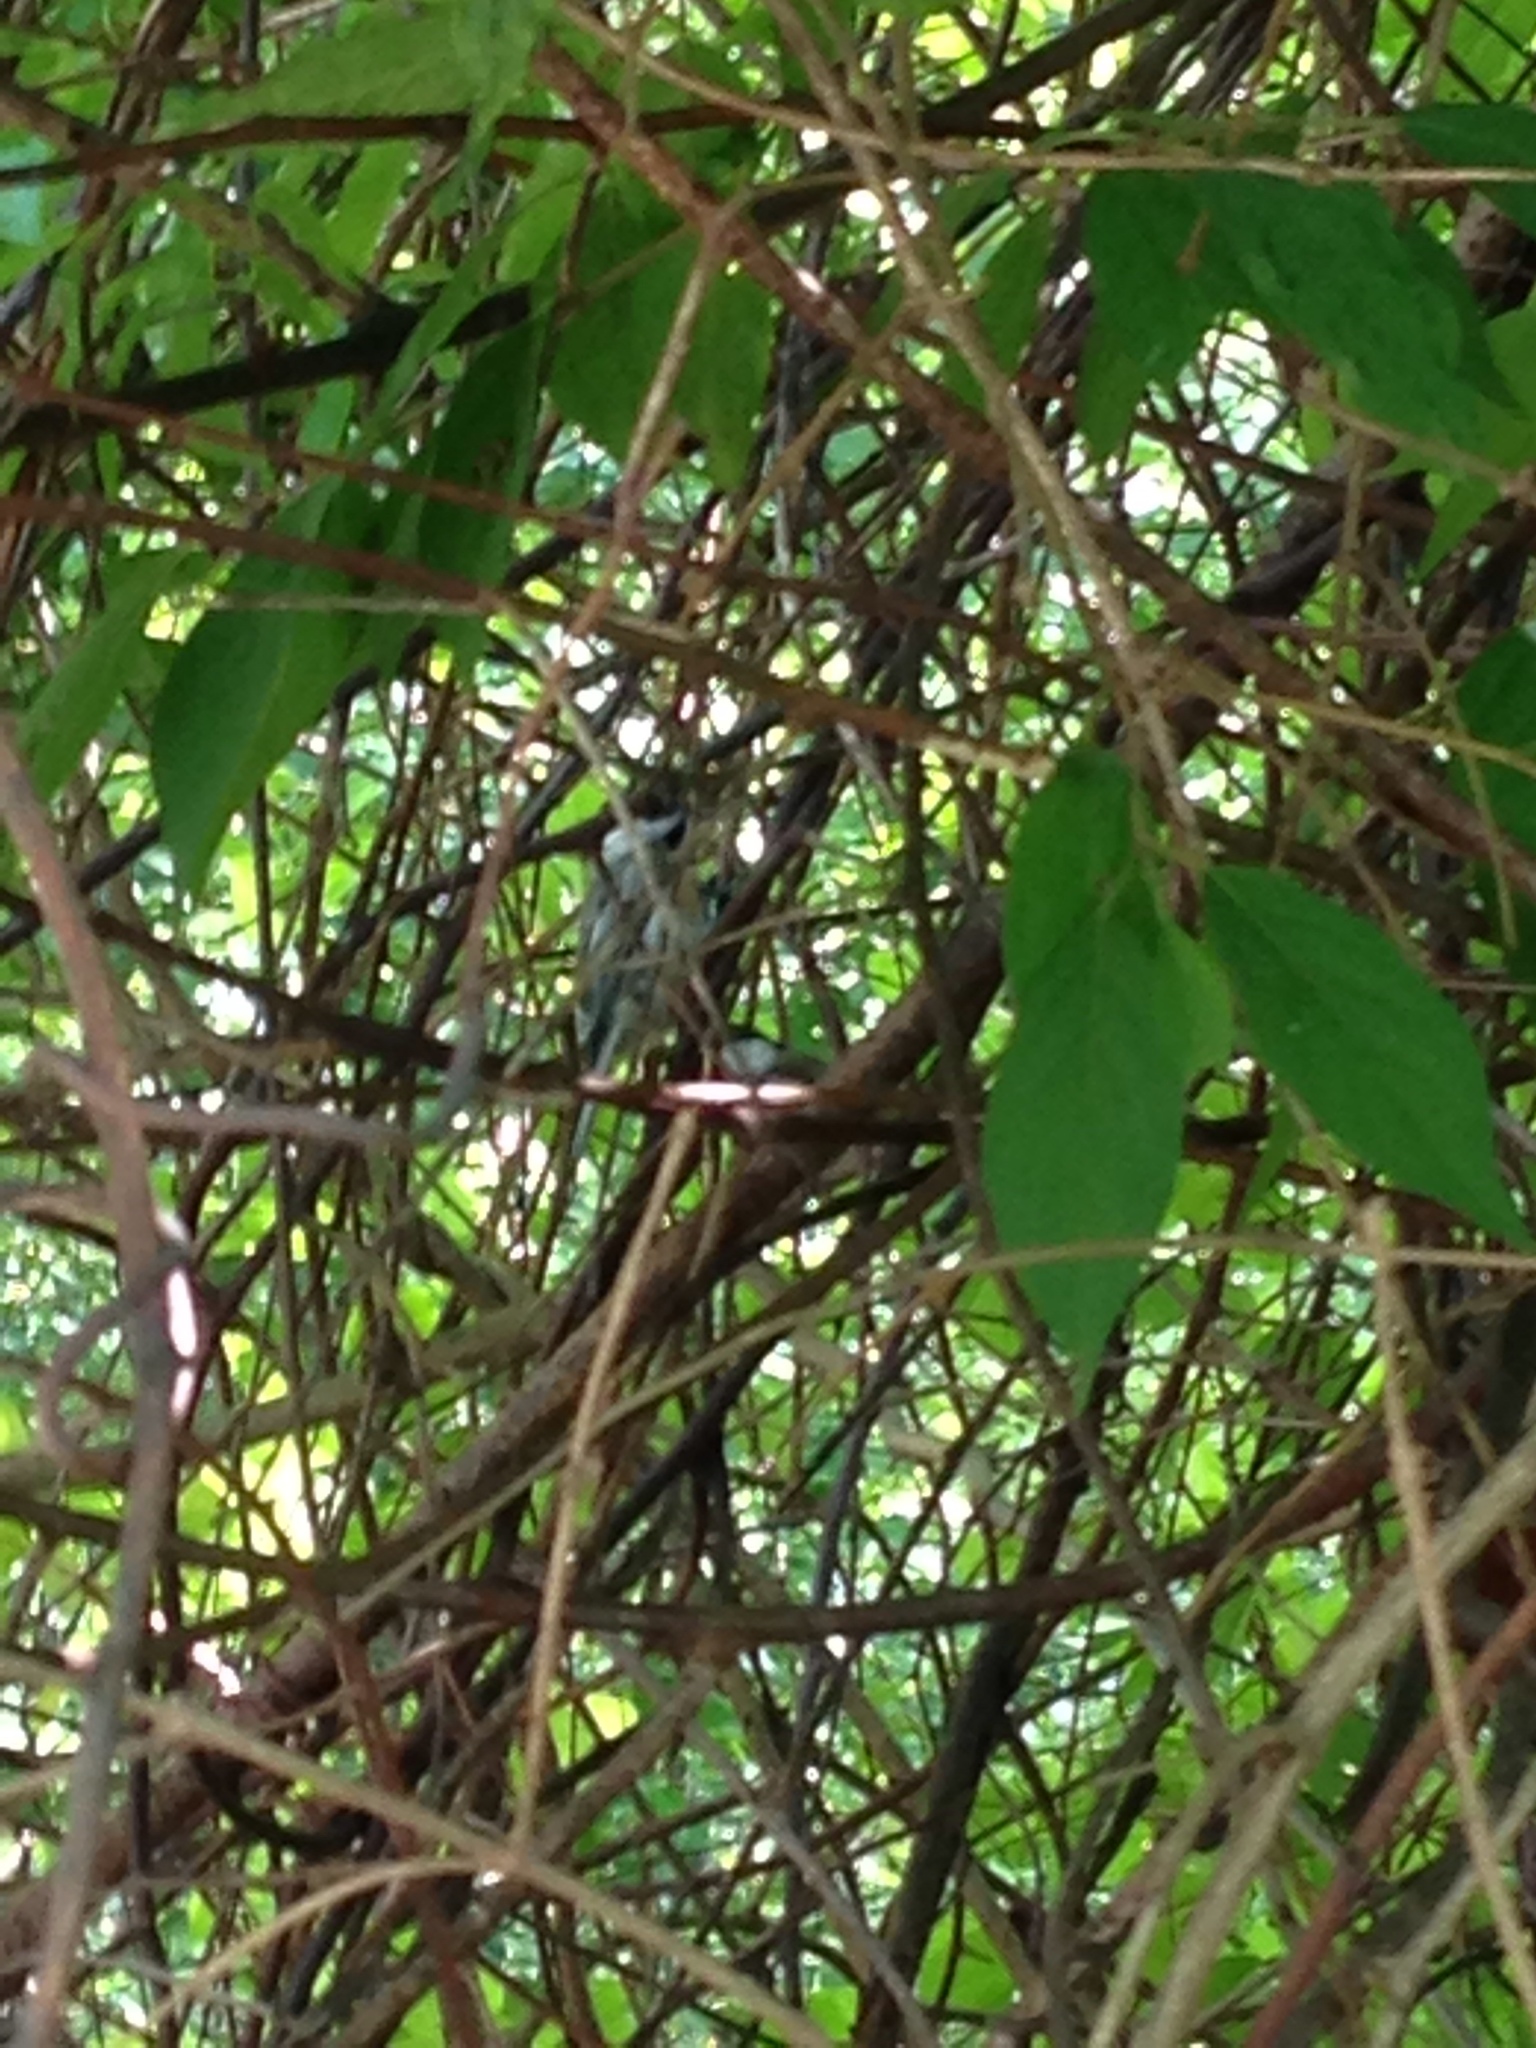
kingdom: Animalia
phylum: Chordata
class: Aves
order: Passeriformes
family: Paridae
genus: Poecile
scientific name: Poecile atricapillus
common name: Black-capped chickadee
